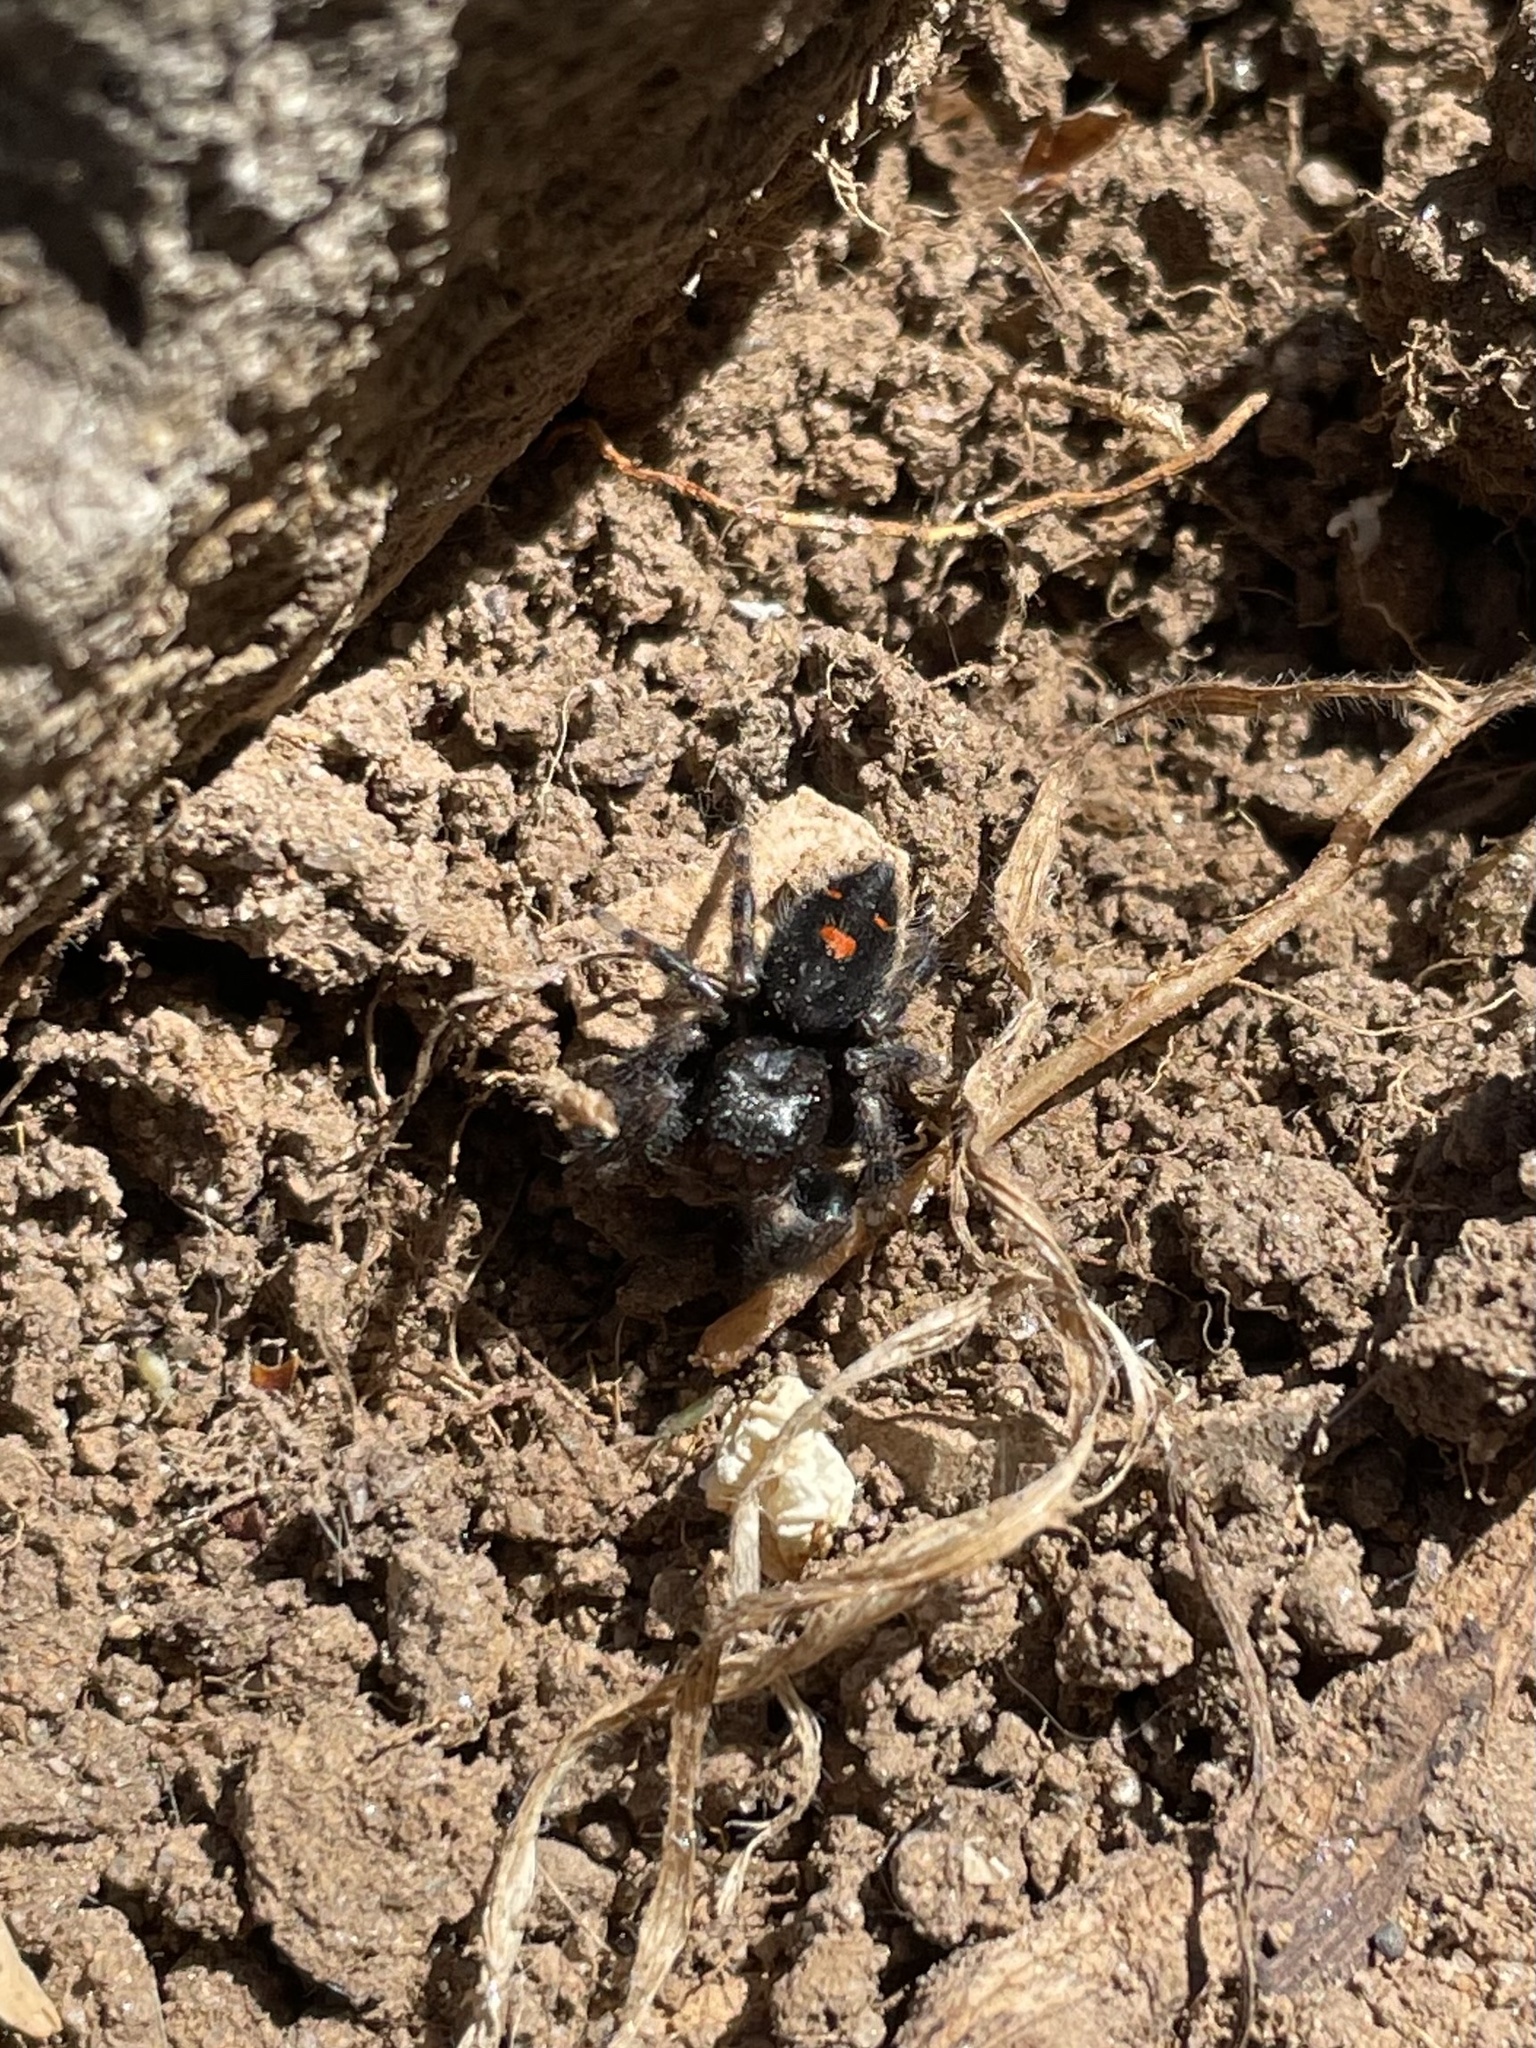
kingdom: Animalia
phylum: Arthropoda
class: Arachnida
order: Araneae
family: Salticidae
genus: Phidippus
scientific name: Phidippus audax
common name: Bold jumper
